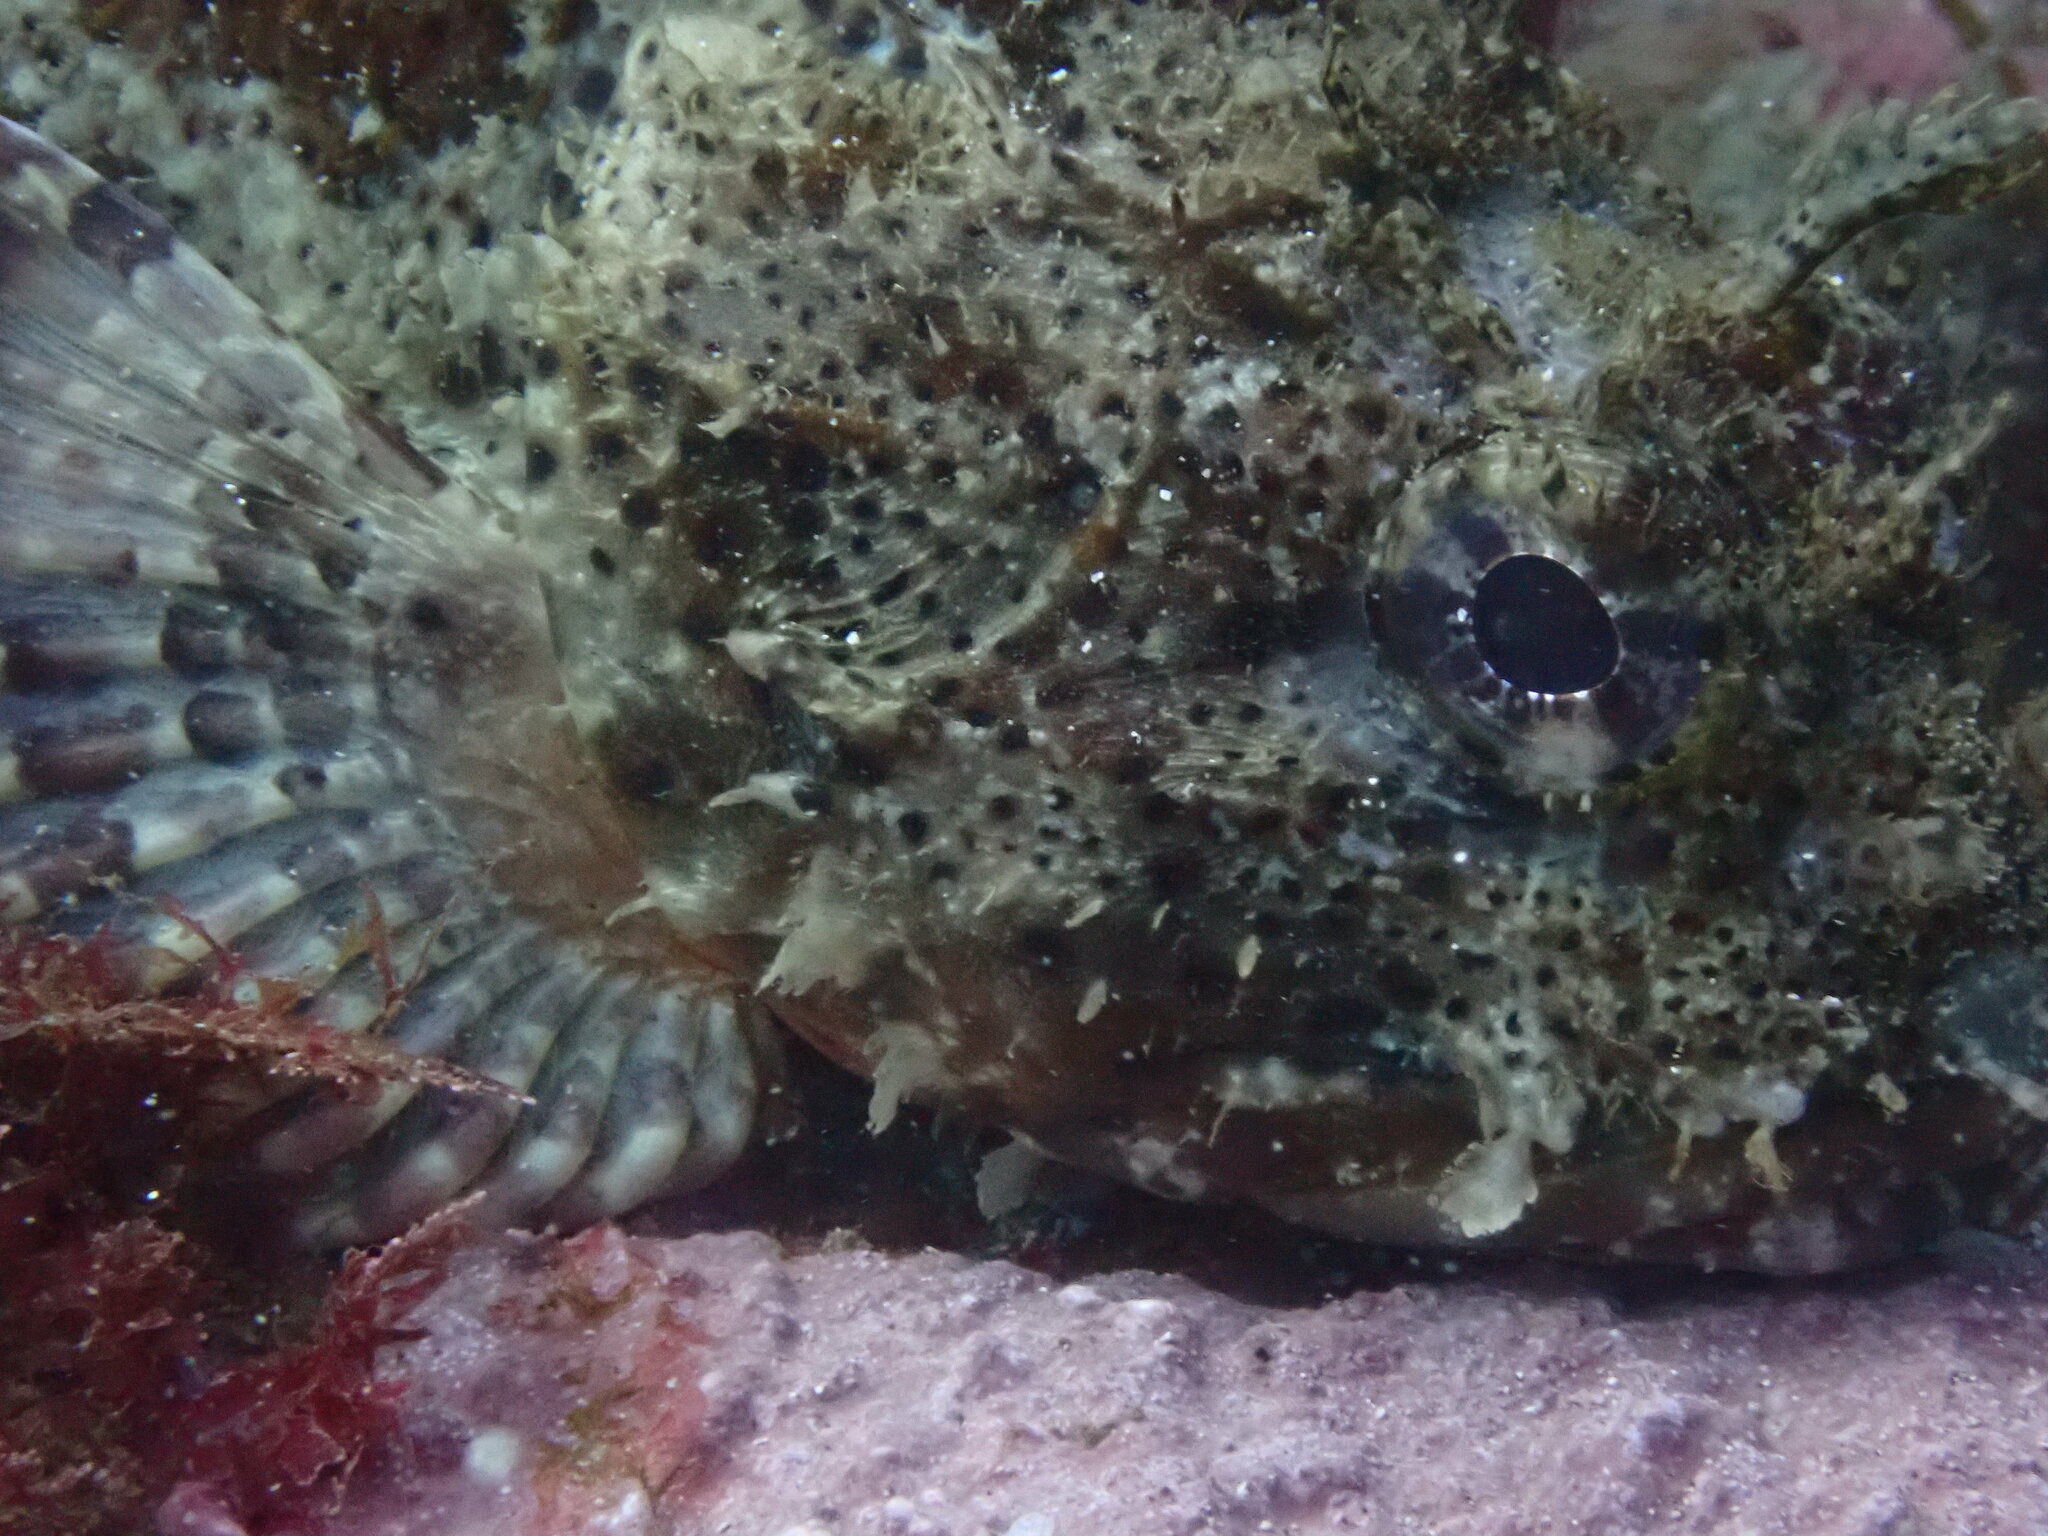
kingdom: Animalia
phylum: Chordata
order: Scorpaeniformes
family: Scorpaenidae
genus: Scorpaena
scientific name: Scorpaena guttata
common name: California scorpionfish
